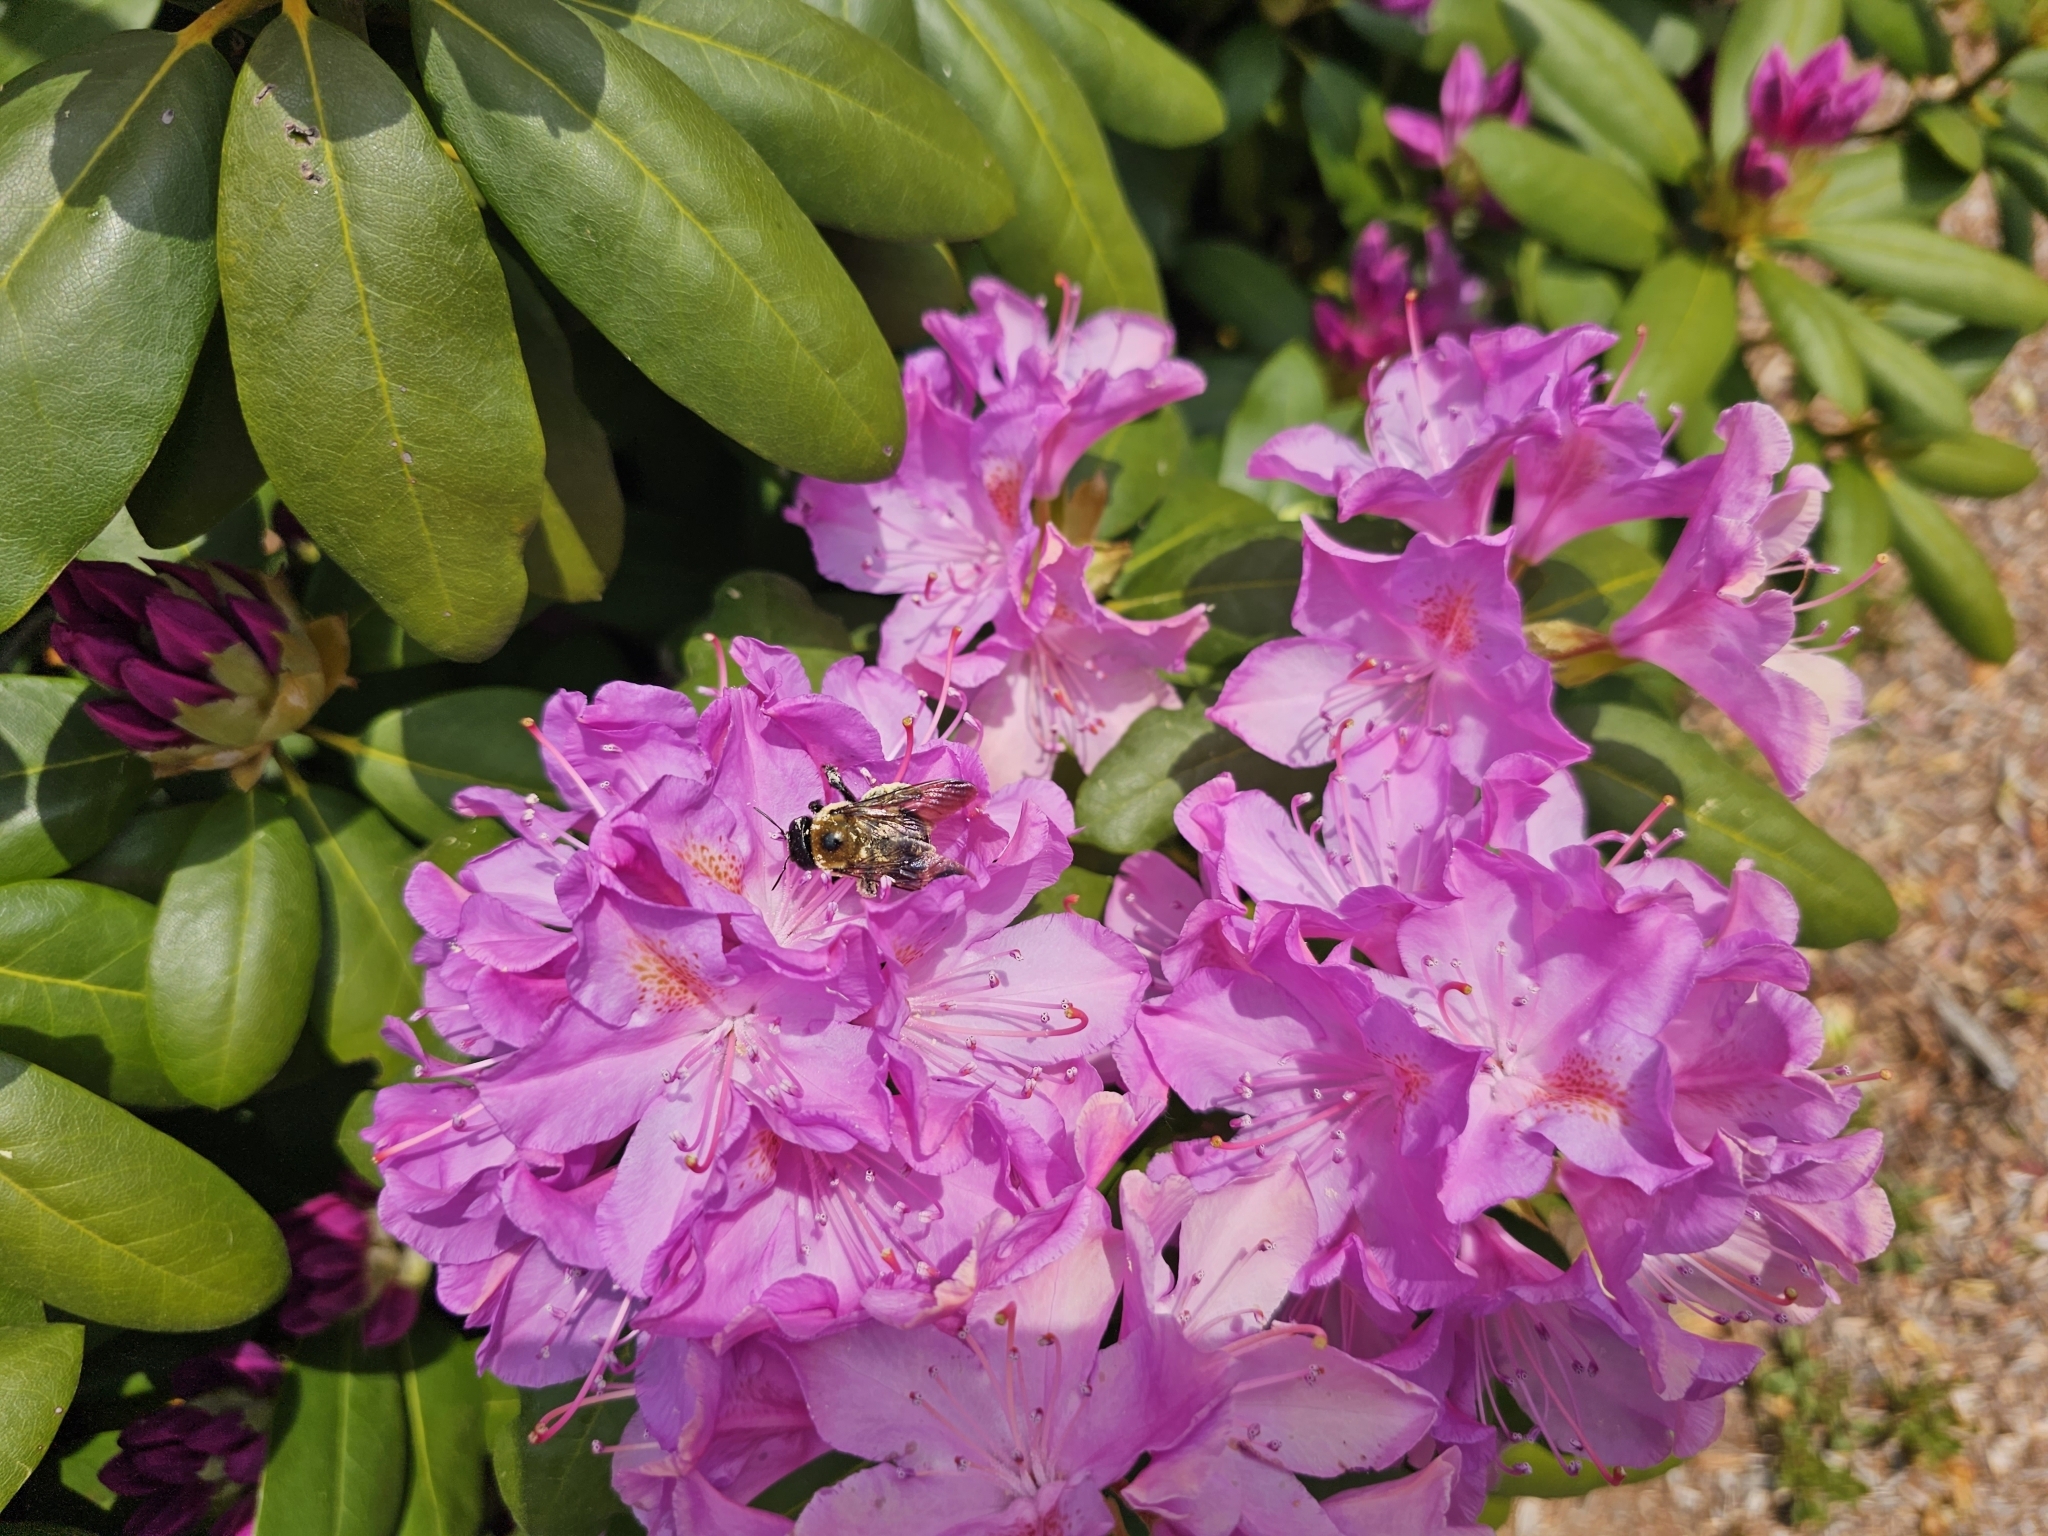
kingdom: Animalia
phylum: Arthropoda
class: Insecta
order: Hymenoptera
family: Apidae
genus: Xylocopa
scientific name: Xylocopa virginica
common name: Carpenter bee
